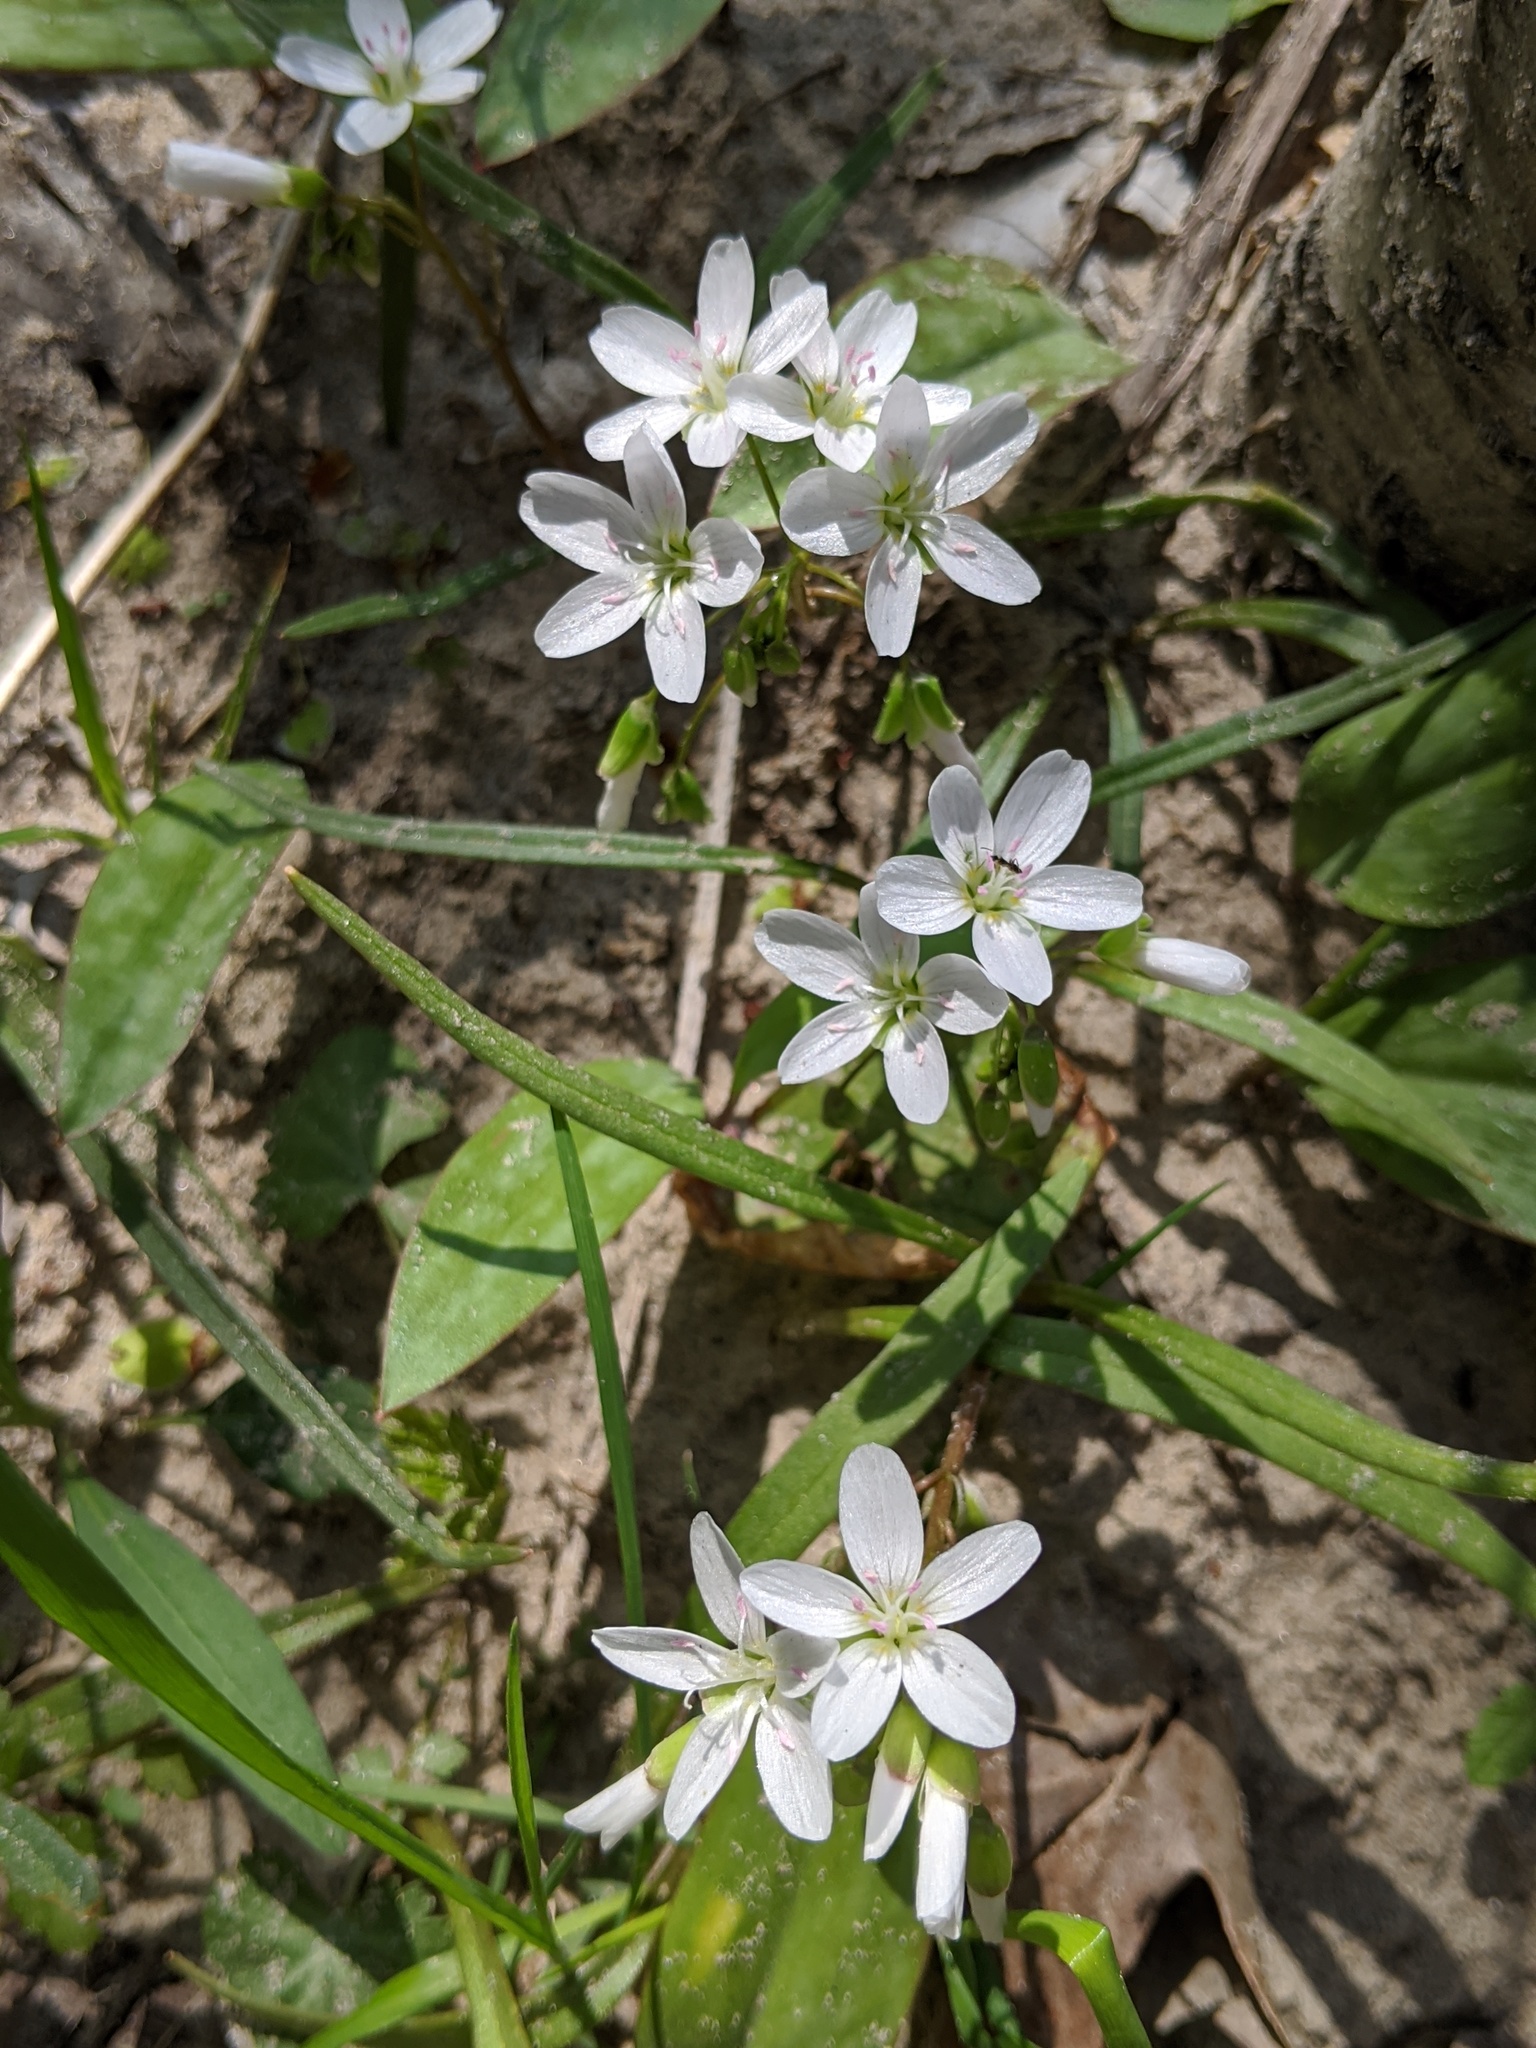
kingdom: Plantae
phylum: Tracheophyta
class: Magnoliopsida
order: Caryophyllales
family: Montiaceae
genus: Claytonia
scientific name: Claytonia virginica
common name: Virginia springbeauty
